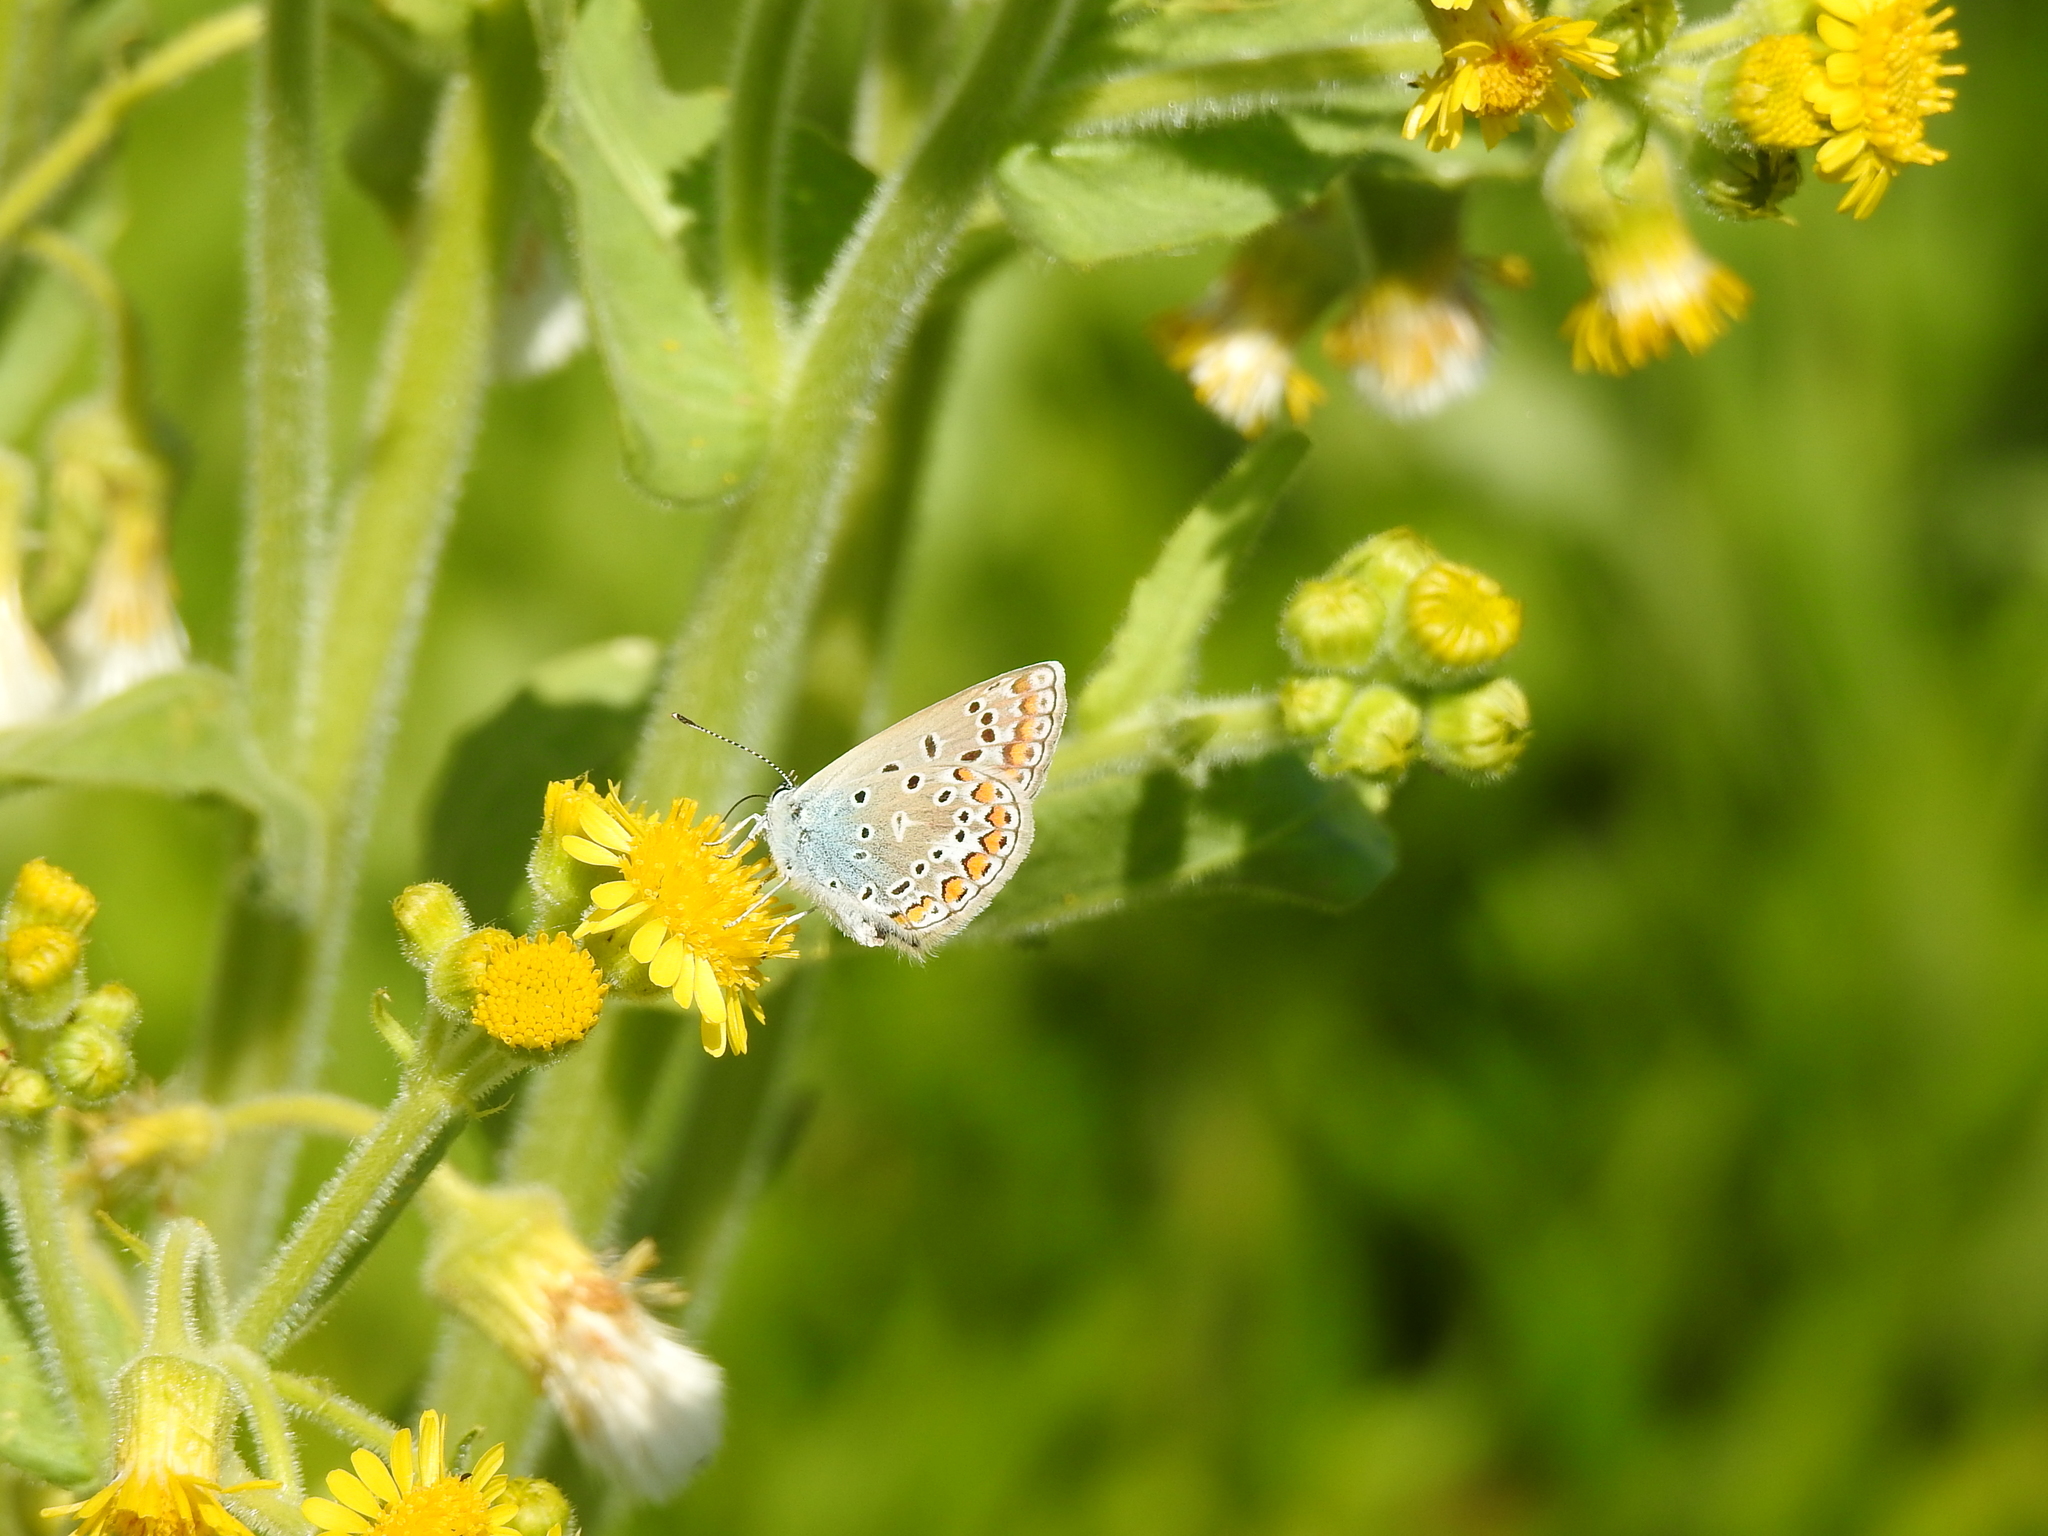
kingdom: Animalia
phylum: Arthropoda
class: Insecta
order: Lepidoptera
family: Lycaenidae
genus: Polyommatus
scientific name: Polyommatus icarus
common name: Common blue
